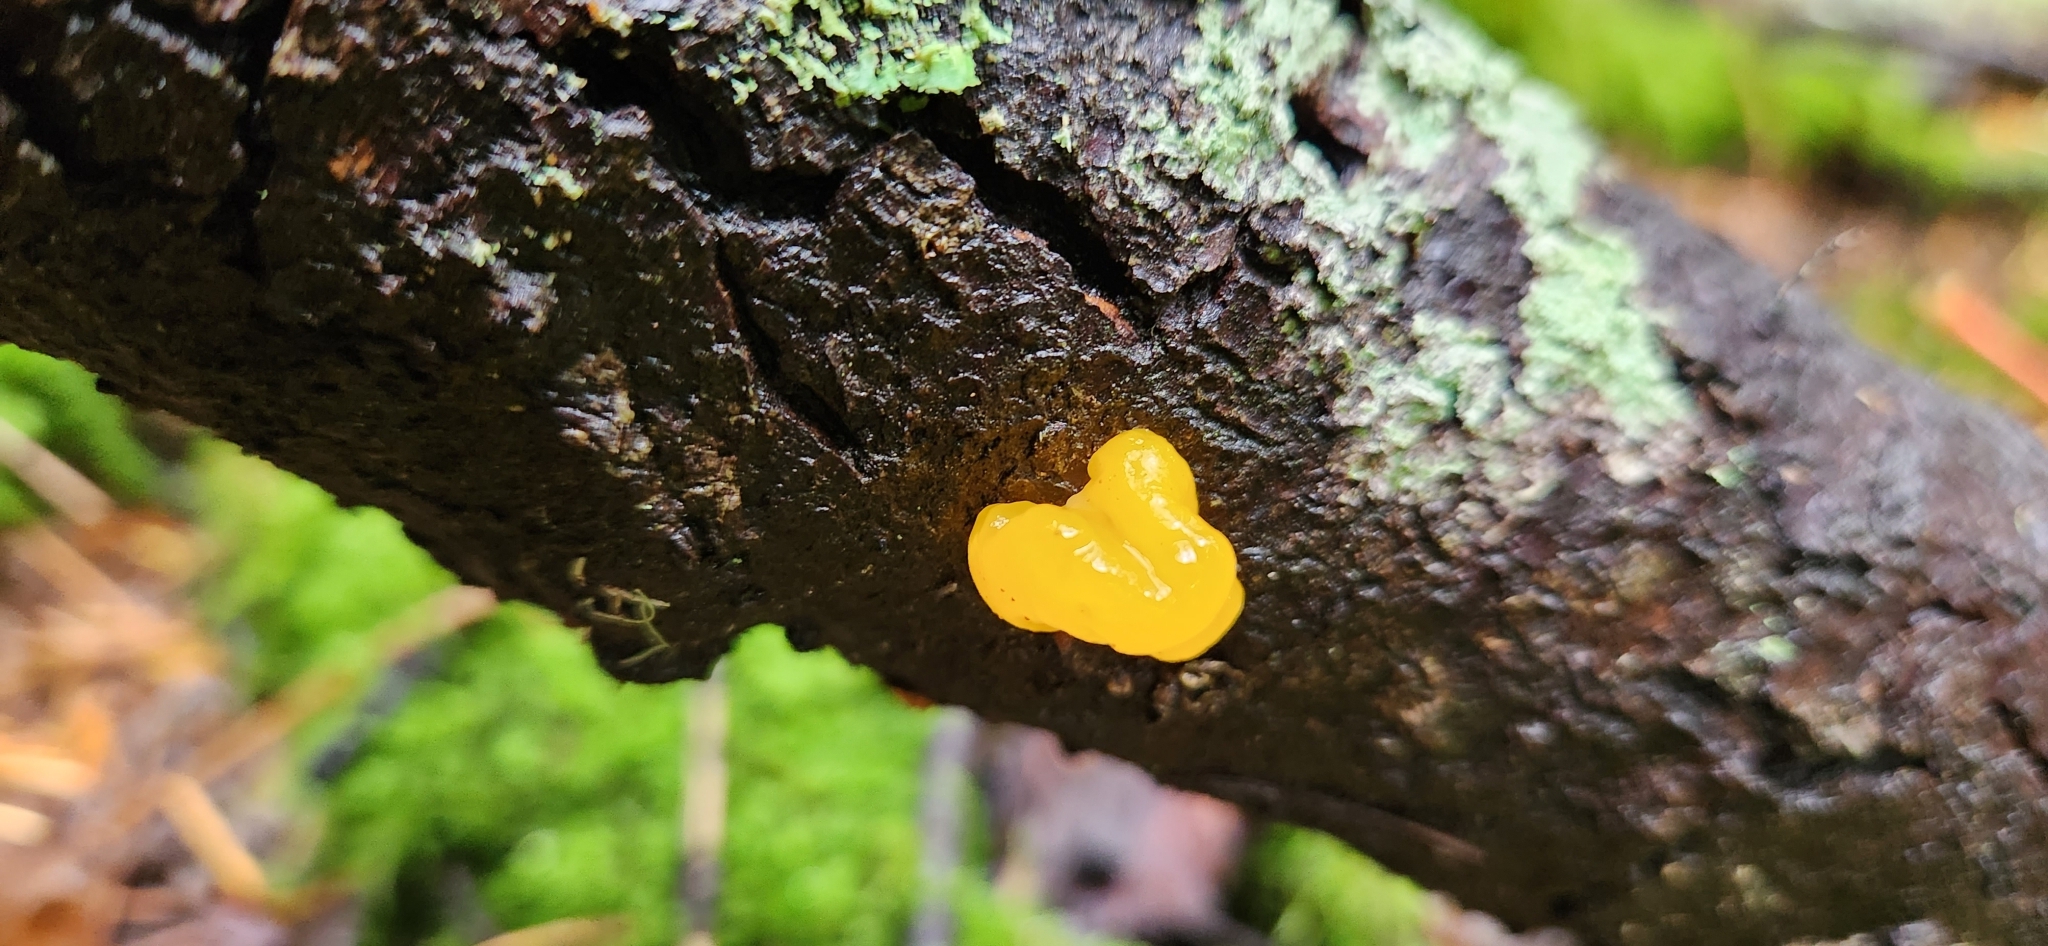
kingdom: Fungi
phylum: Basidiomycota
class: Dacrymycetes
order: Dacrymycetales
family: Dacrymycetaceae
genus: Dacrymyces
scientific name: Dacrymyces chrysospermus
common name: Orange jelly spot
